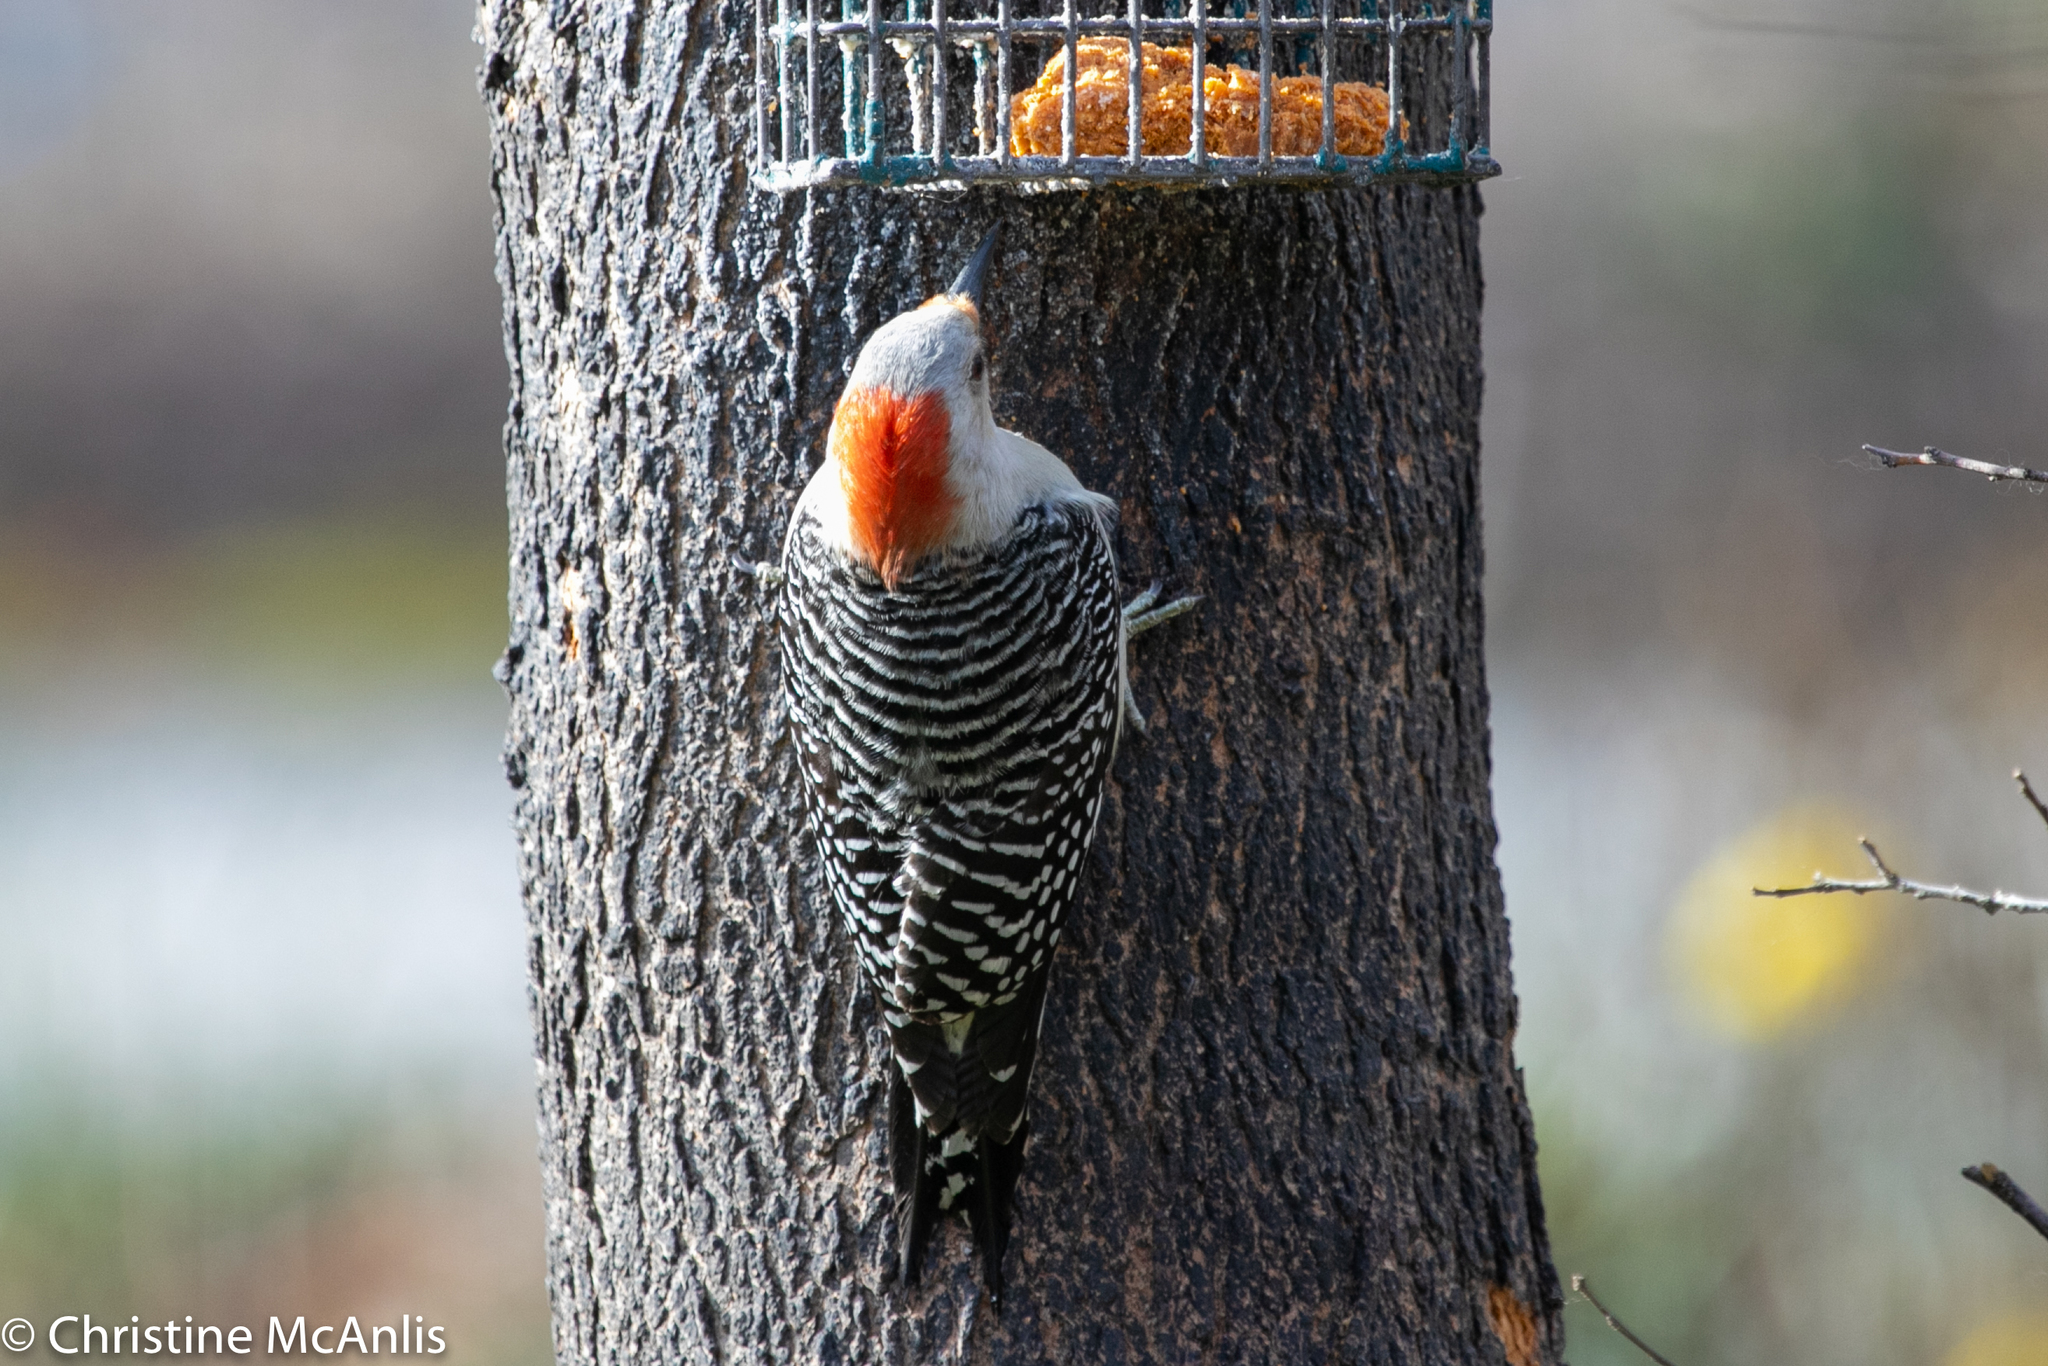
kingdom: Animalia
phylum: Chordata
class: Aves
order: Piciformes
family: Picidae
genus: Melanerpes
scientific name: Melanerpes carolinus
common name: Red-bellied woodpecker
